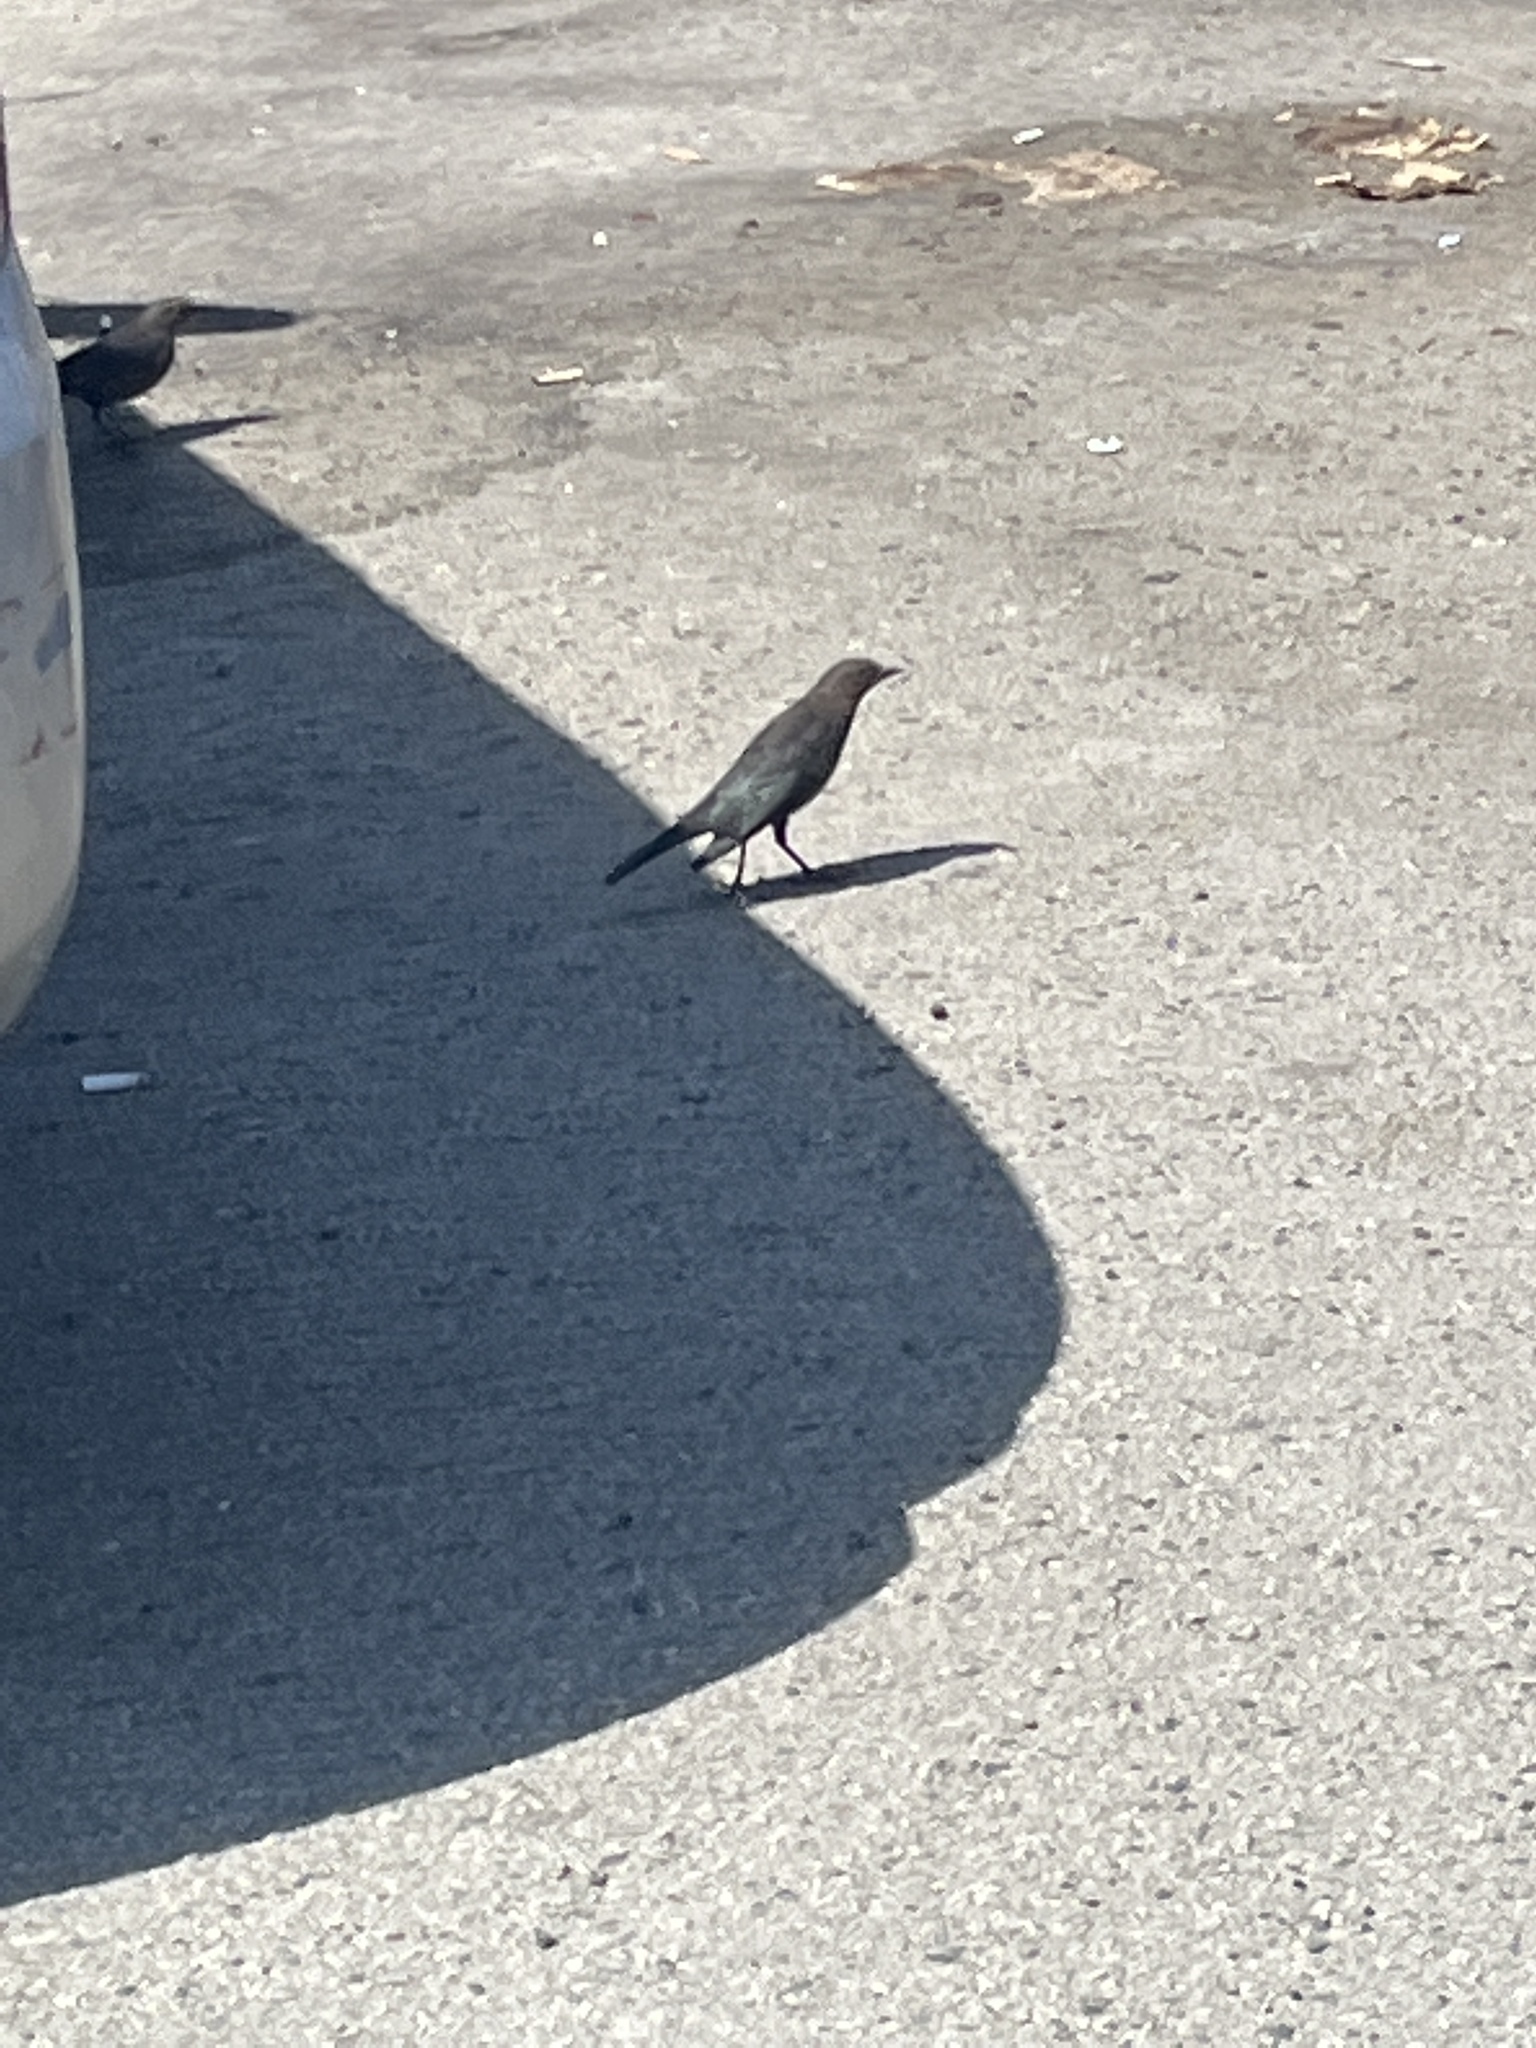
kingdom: Animalia
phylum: Chordata
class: Aves
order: Passeriformes
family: Icteridae
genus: Euphagus
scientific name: Euphagus cyanocephalus
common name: Brewer's blackbird
